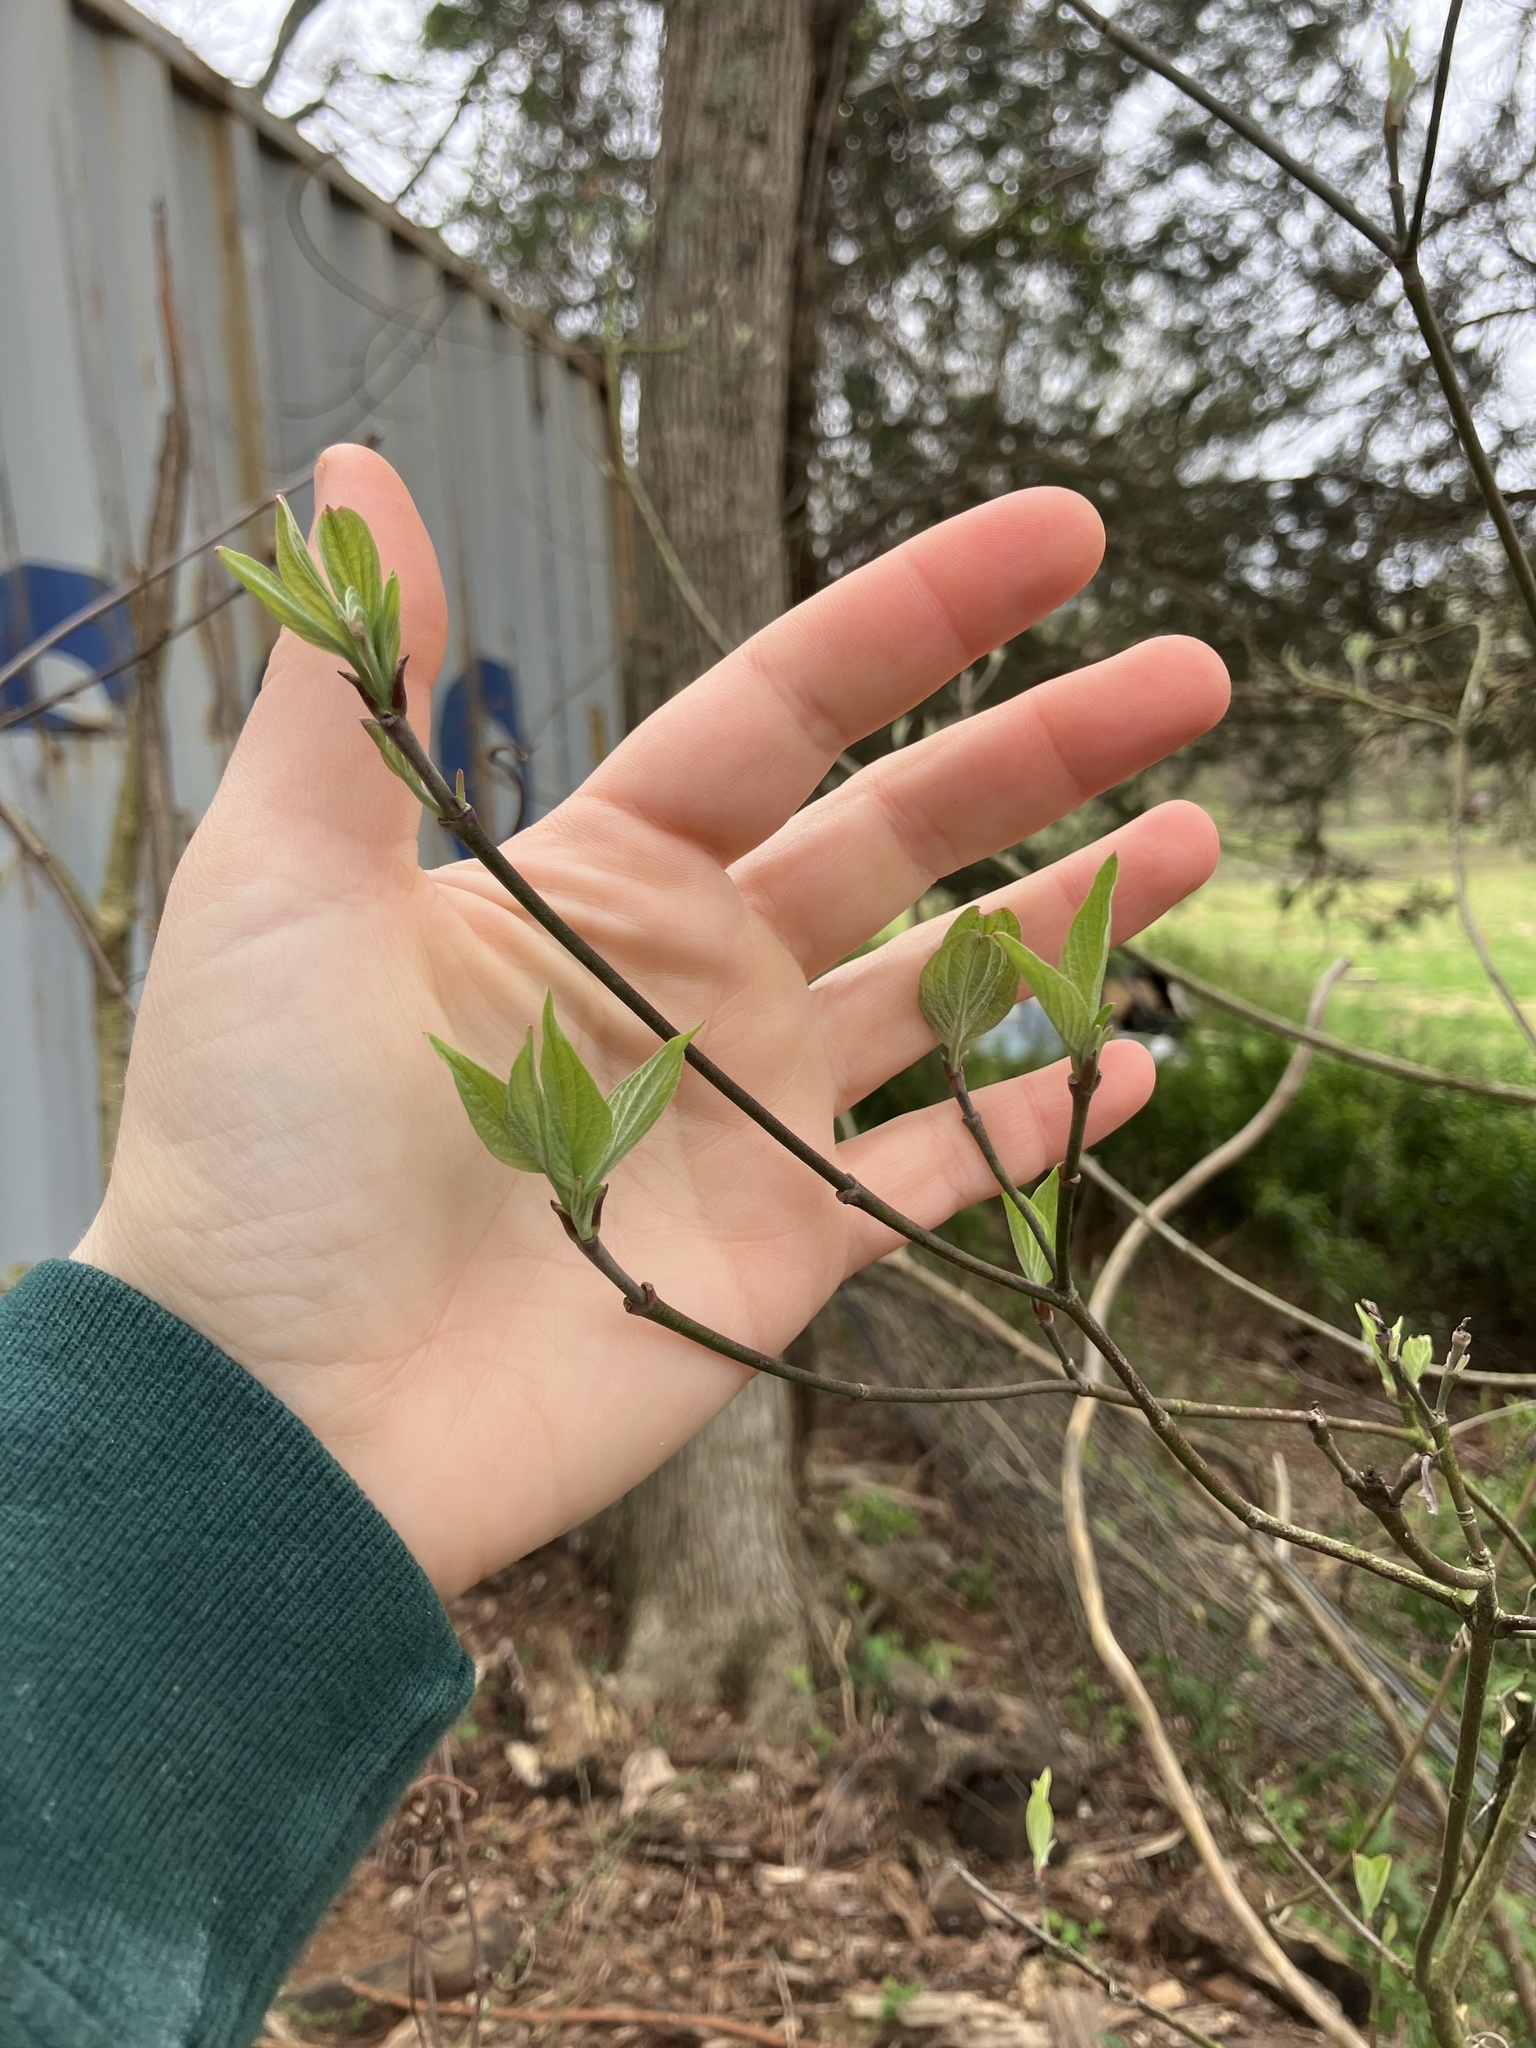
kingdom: Plantae
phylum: Tracheophyta
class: Magnoliopsida
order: Cornales
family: Cornaceae
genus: Cornus
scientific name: Cornus florida
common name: Flowering dogwood
